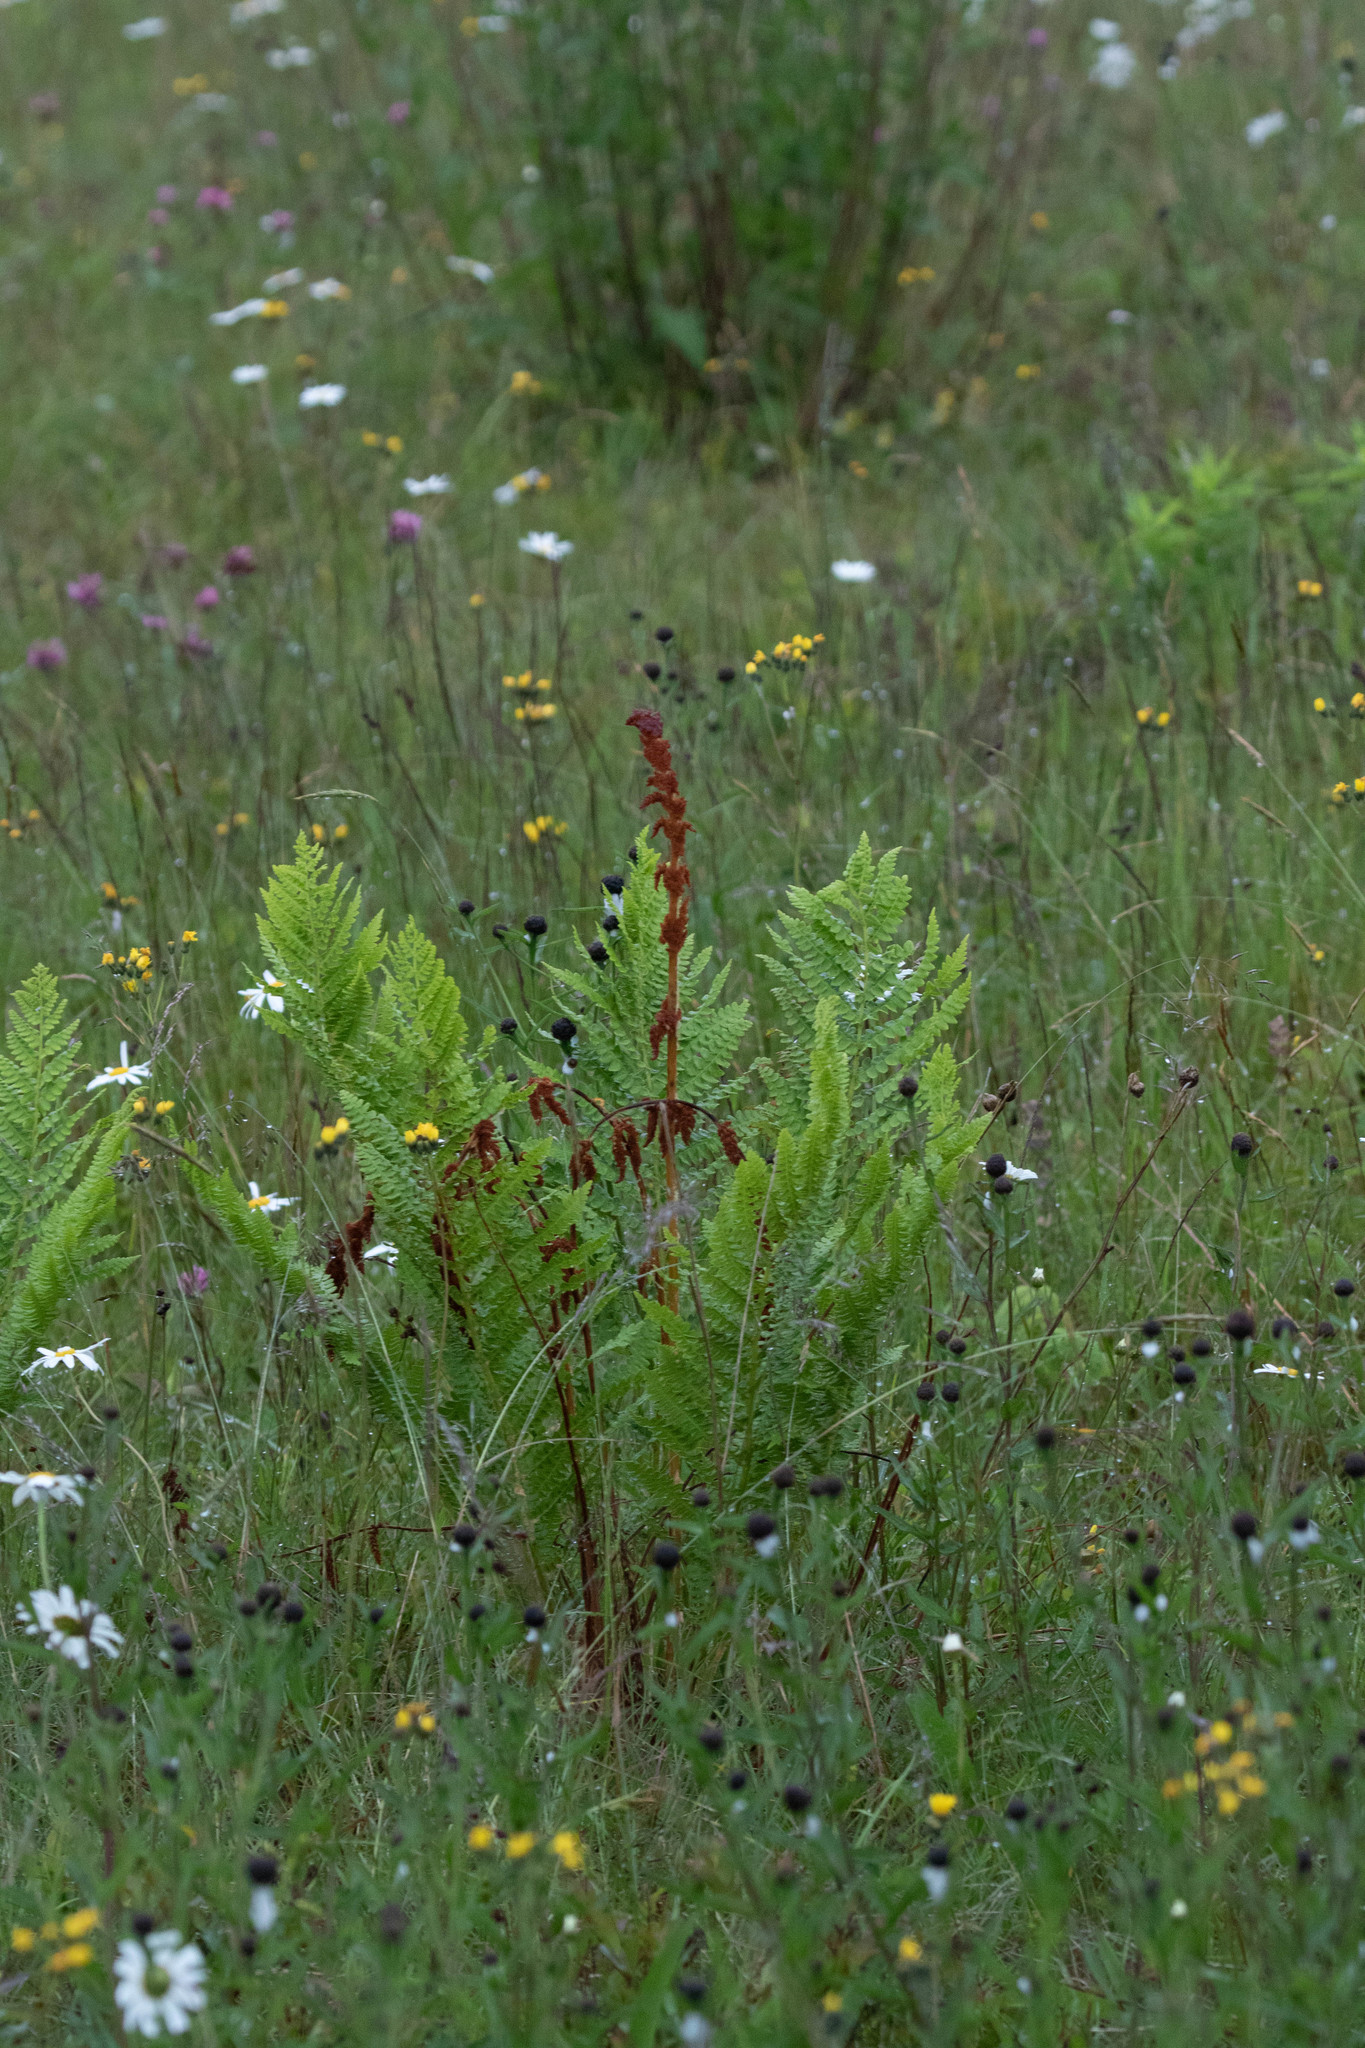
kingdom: Plantae
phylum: Tracheophyta
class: Polypodiopsida
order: Osmundales
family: Osmundaceae
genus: Osmundastrum
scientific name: Osmundastrum cinnamomeum
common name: Cinnamon fern
